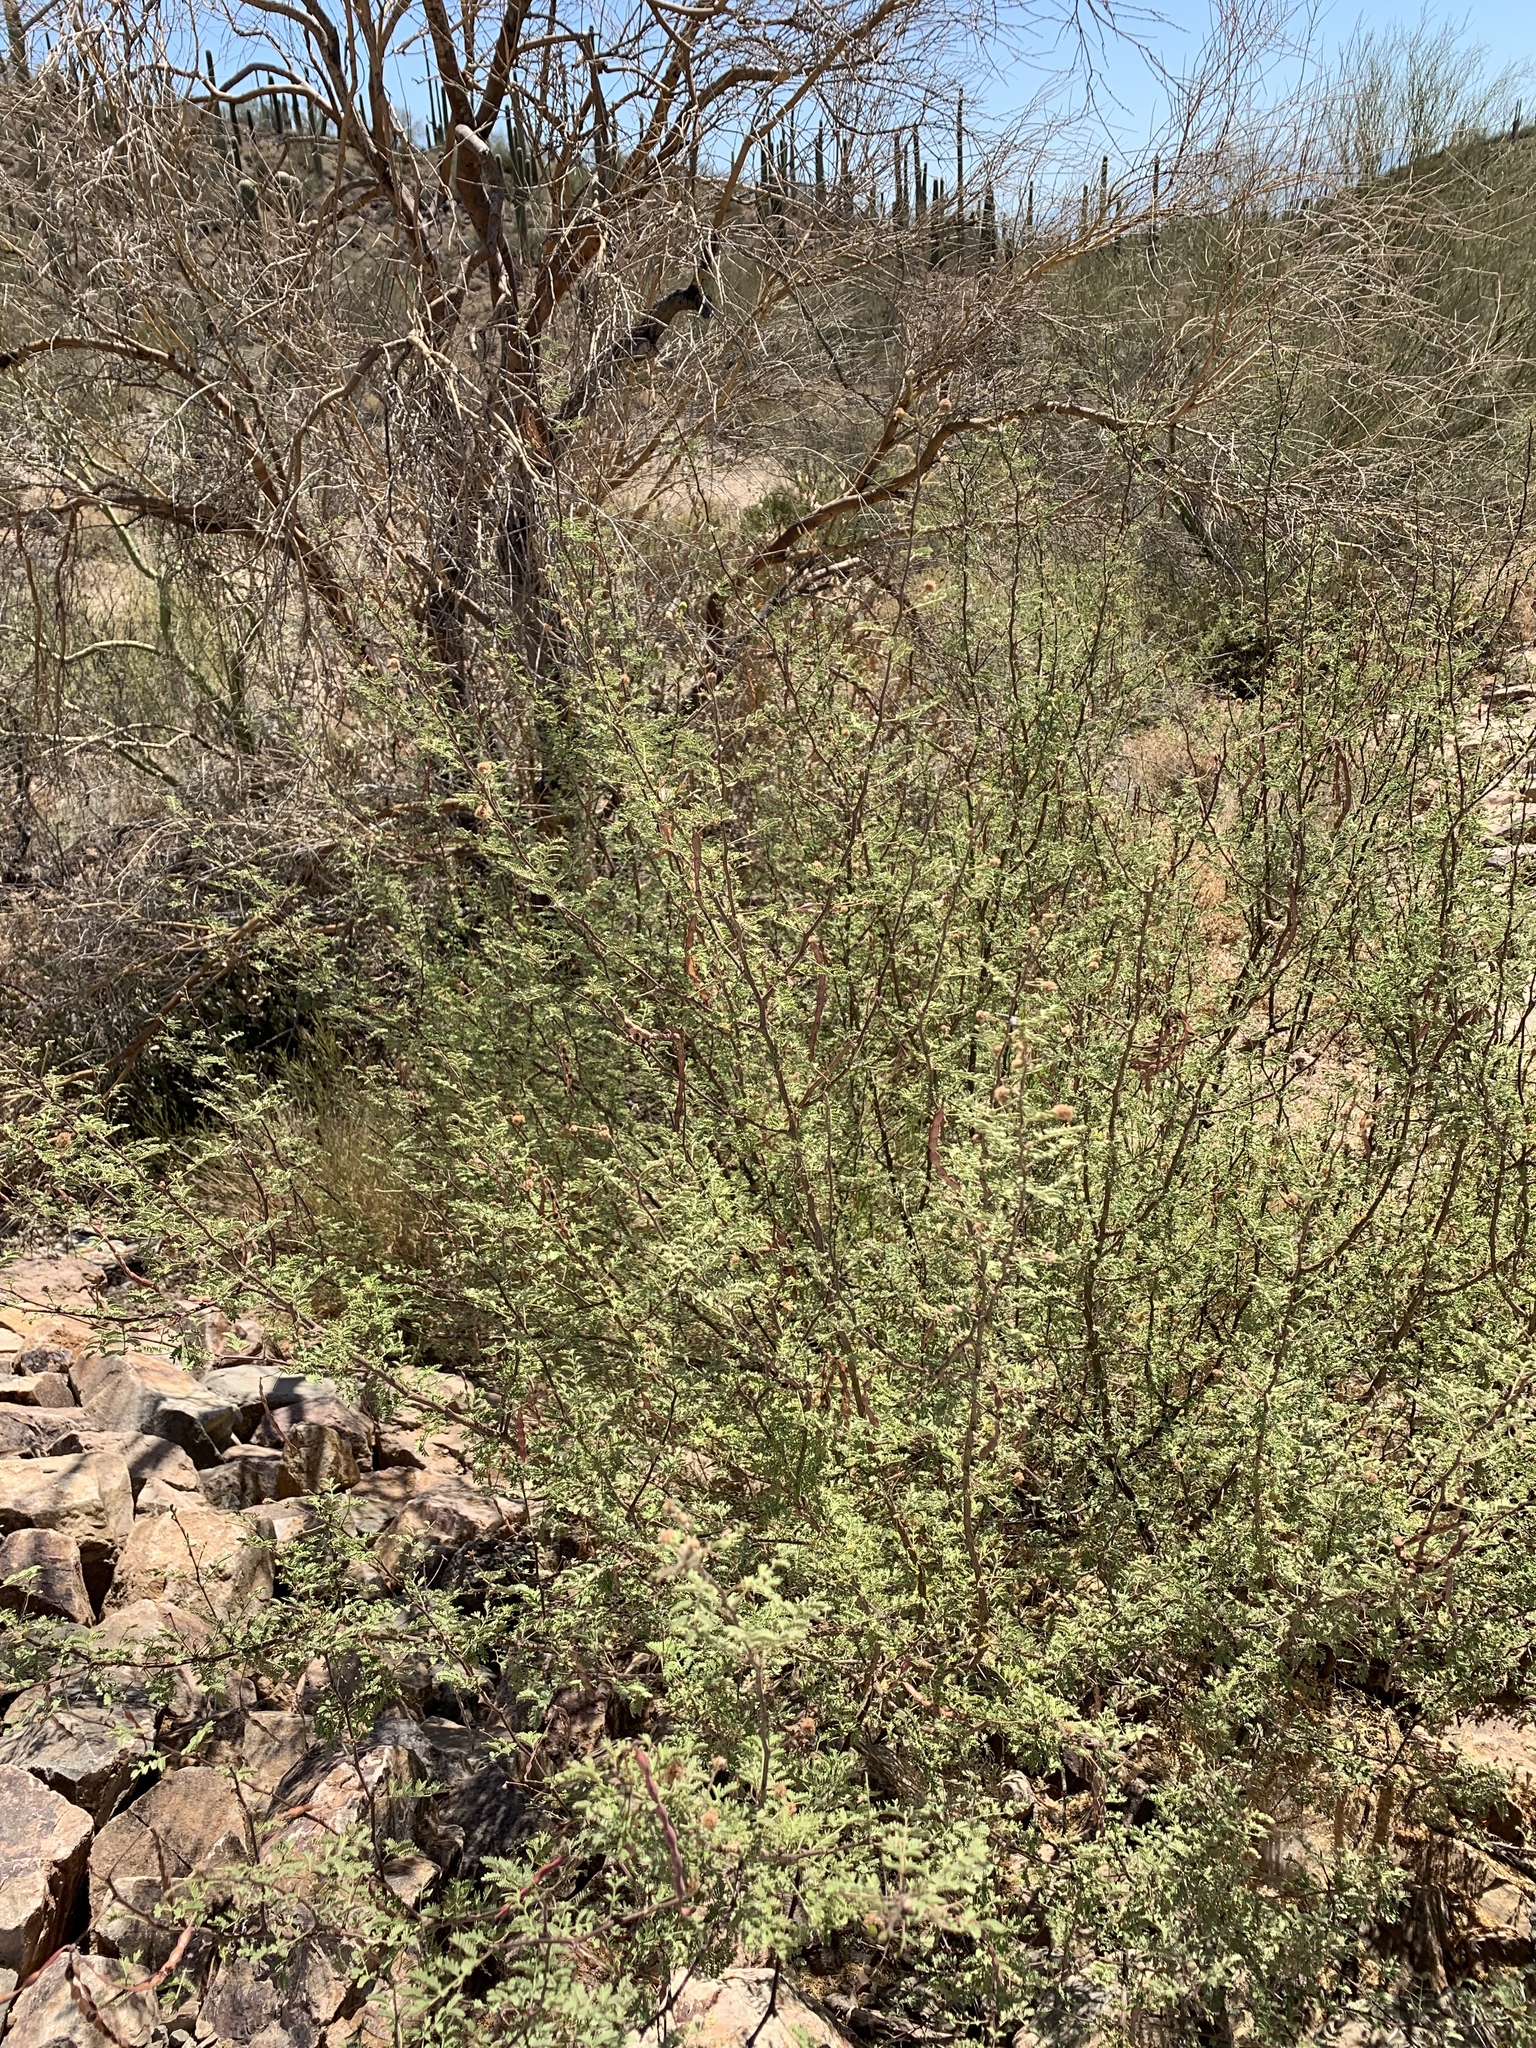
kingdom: Plantae
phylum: Tracheophyta
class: Magnoliopsida
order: Fabales
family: Fabaceae
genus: Vachellia
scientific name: Vachellia constricta
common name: Mescat acacia
